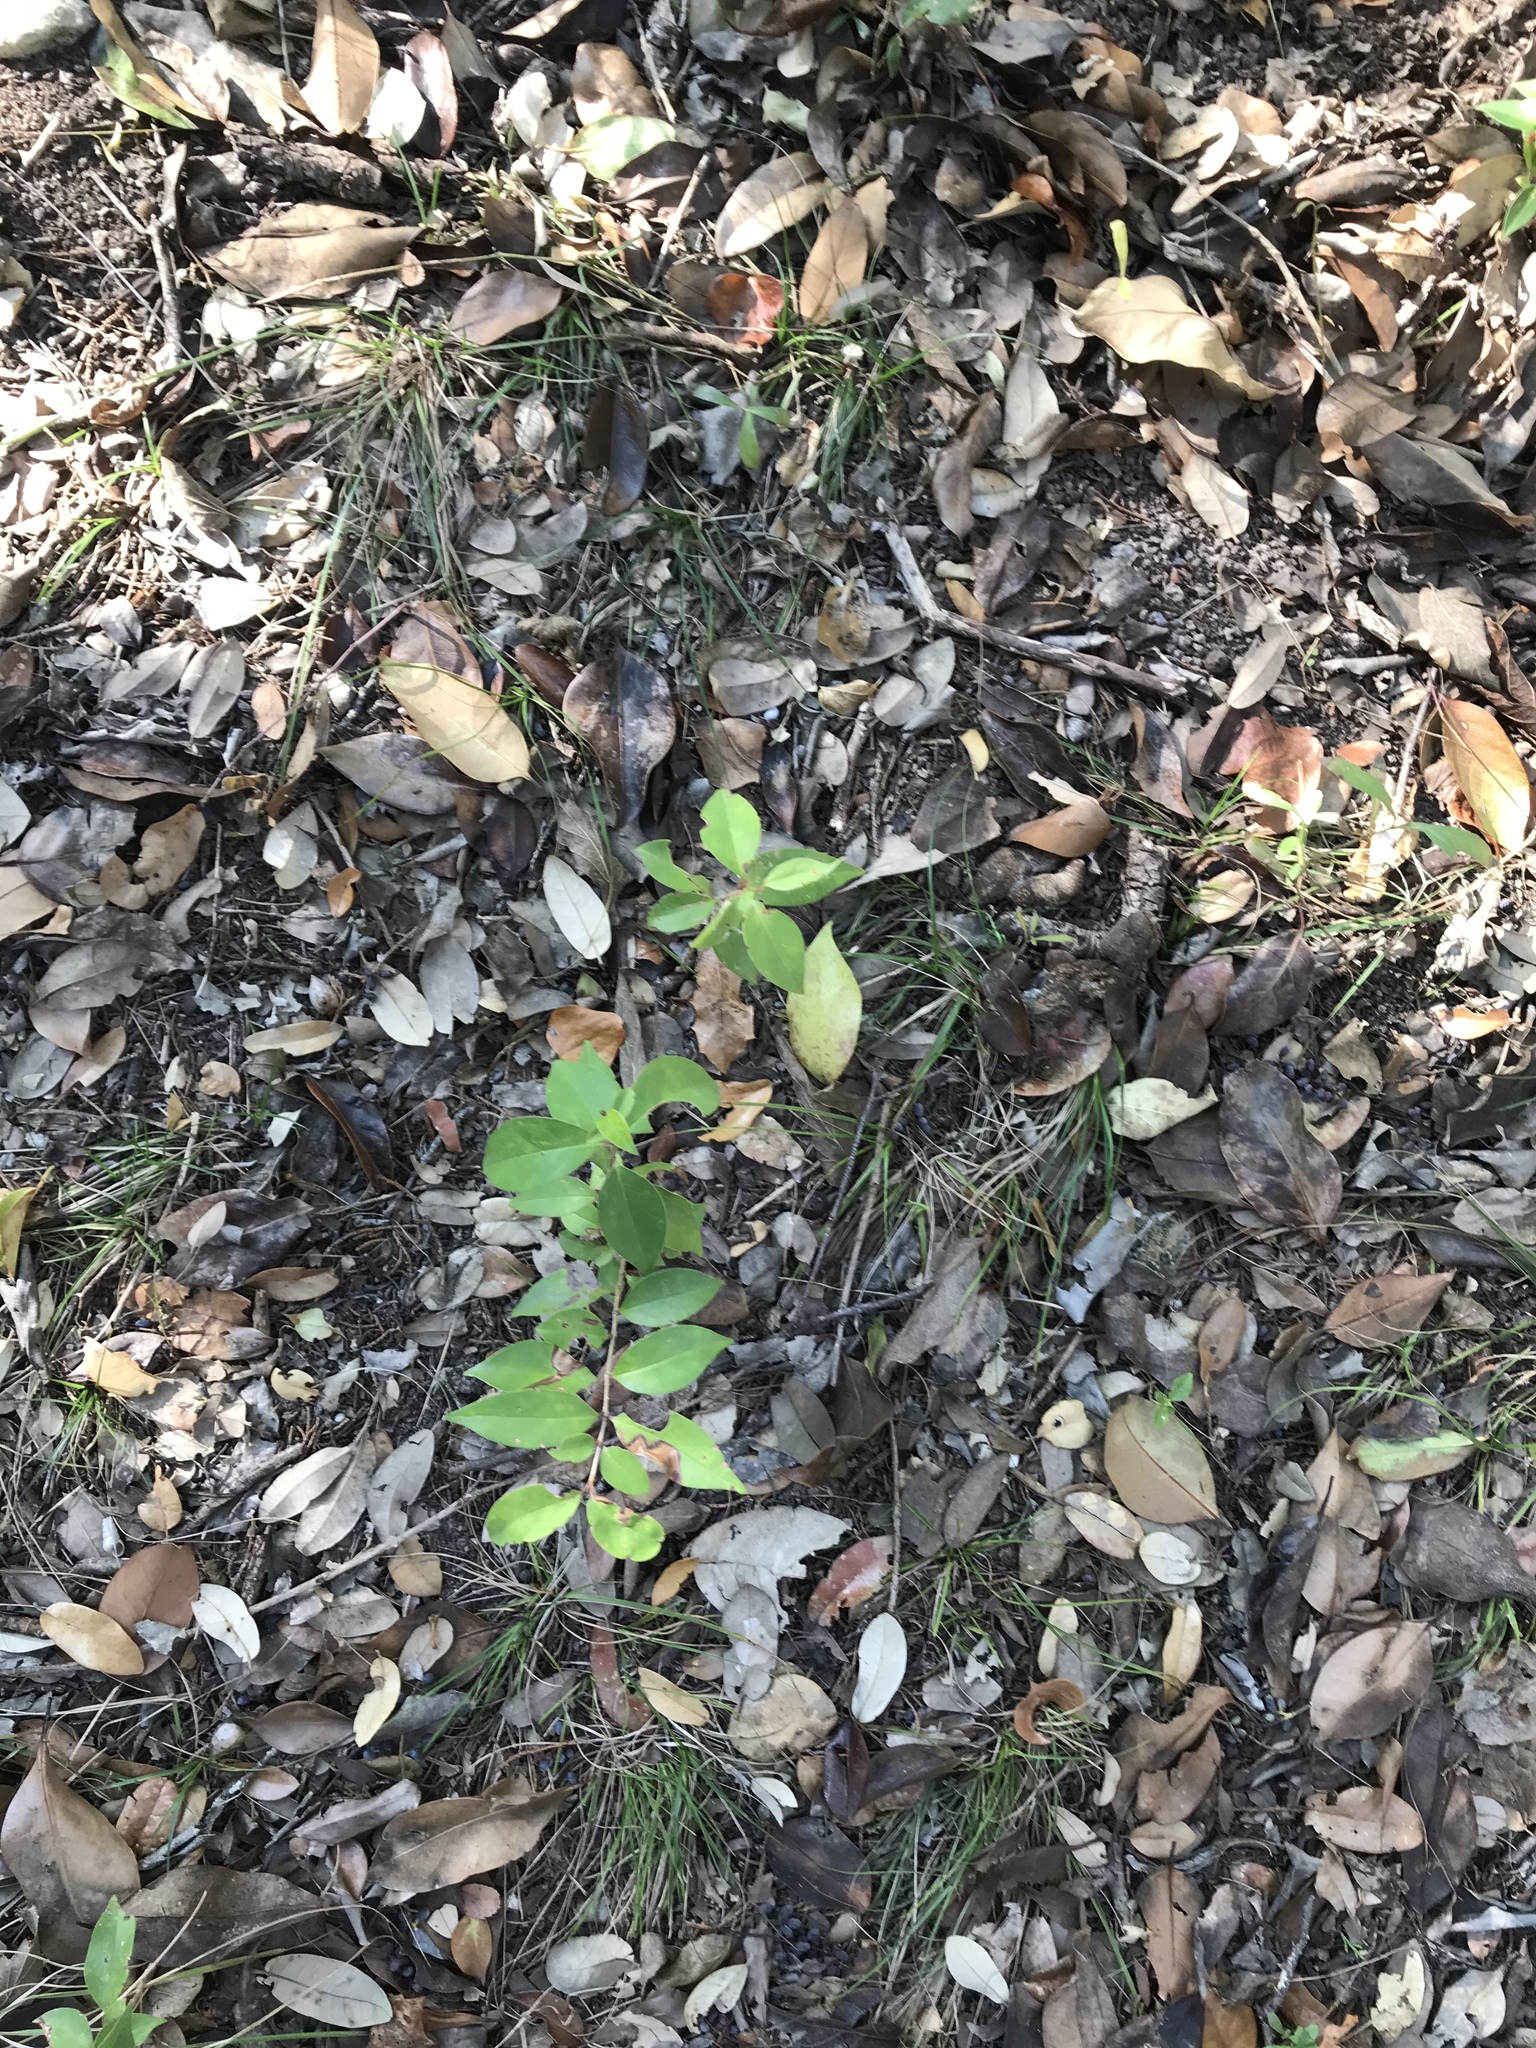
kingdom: Plantae
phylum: Tracheophyta
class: Magnoliopsida
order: Lamiales
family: Oleaceae
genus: Ligustrum
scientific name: Ligustrum lucidum
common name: Glossy privet
